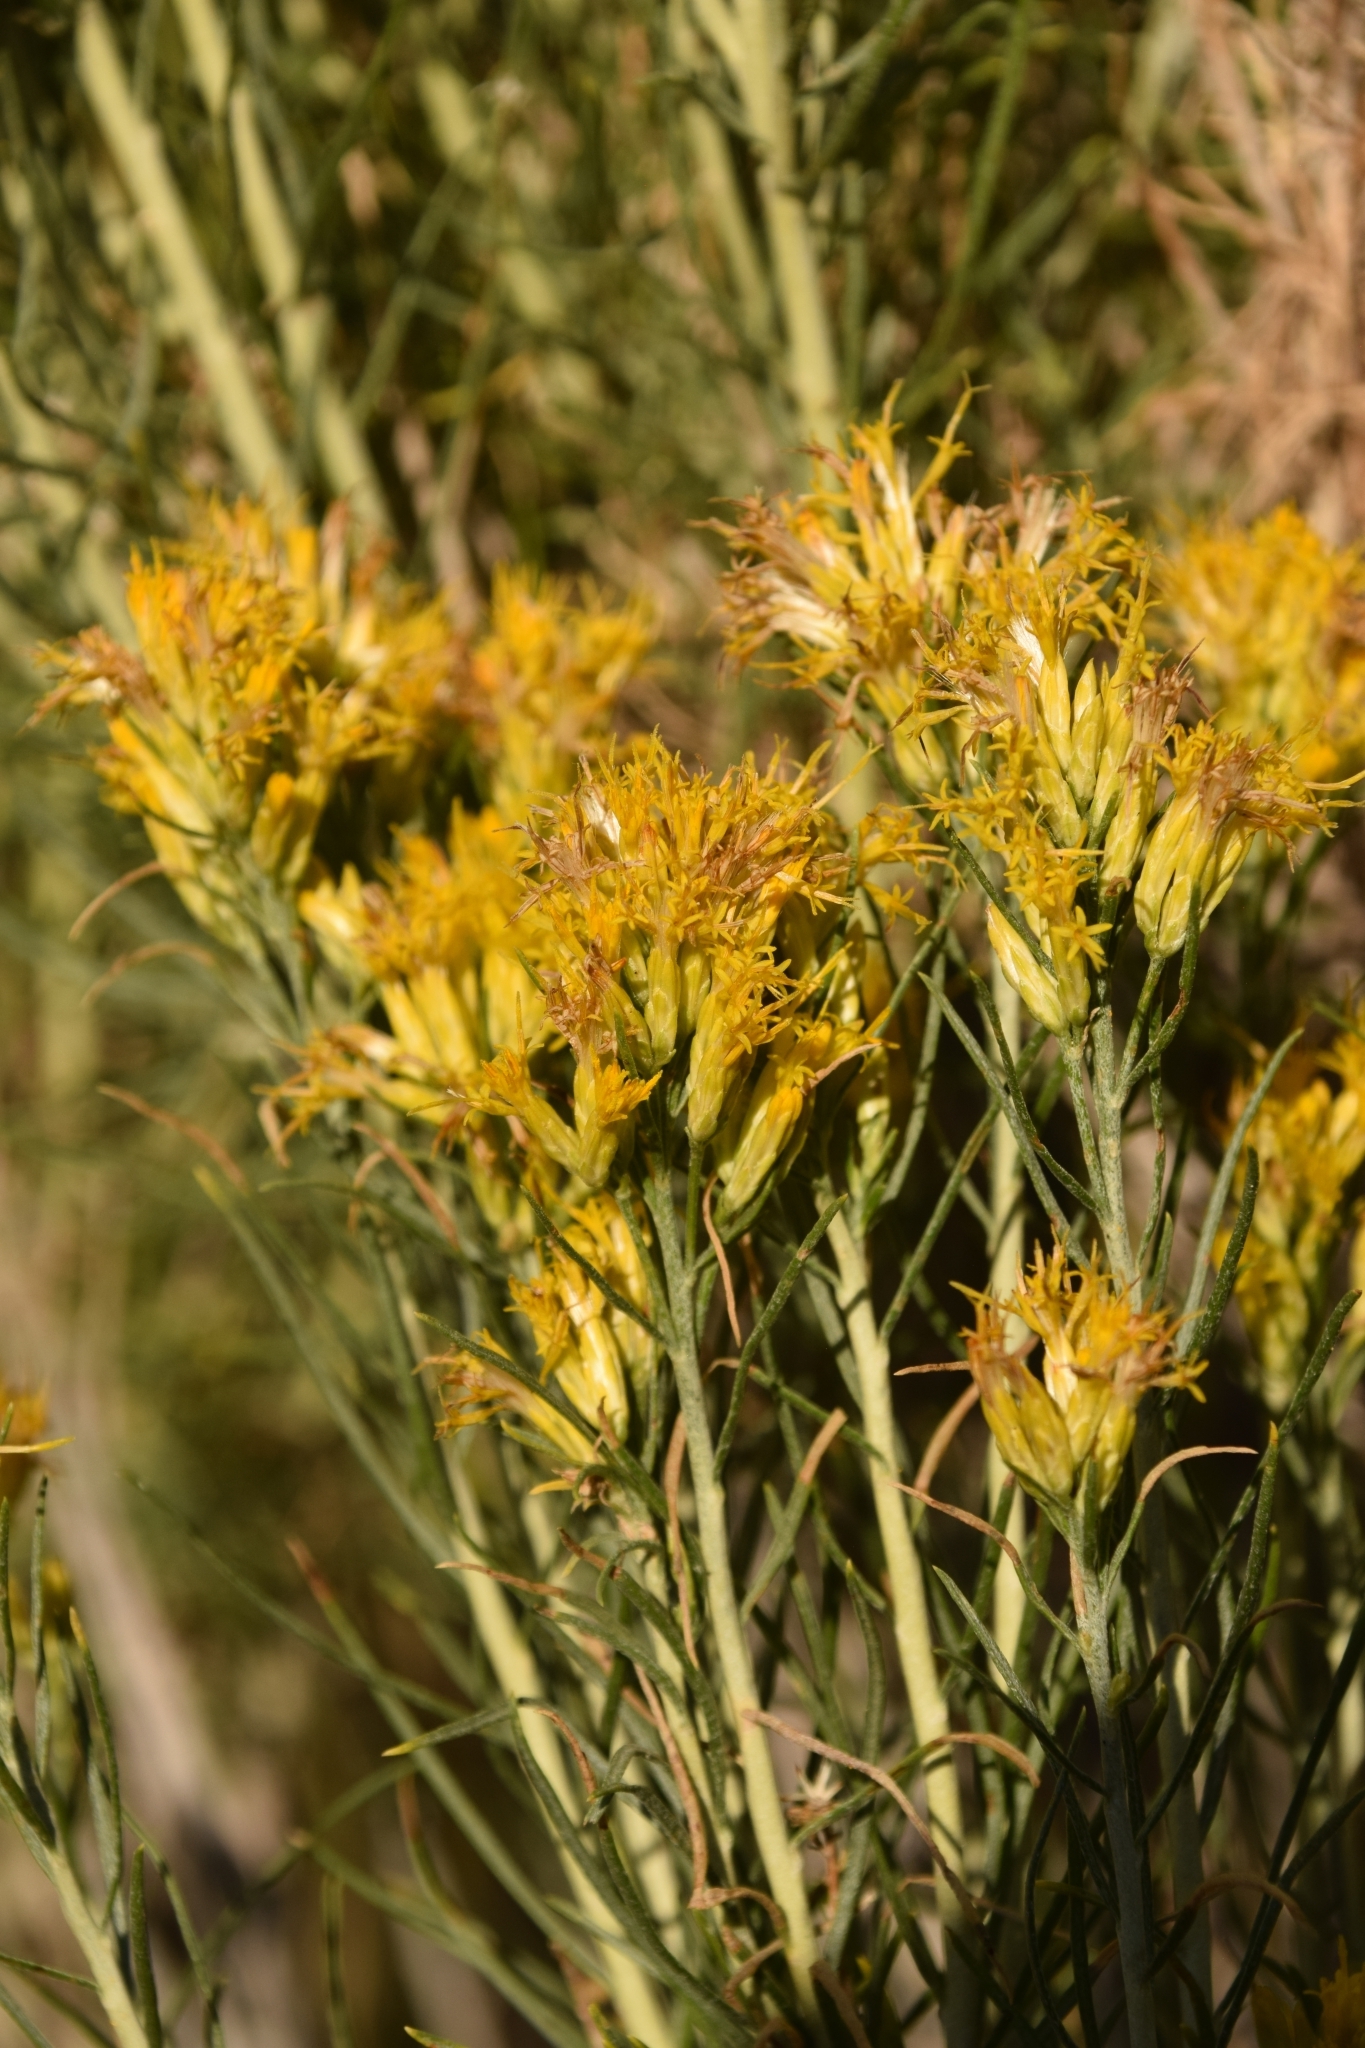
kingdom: Plantae
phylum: Tracheophyta
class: Magnoliopsida
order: Asterales
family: Asteraceae
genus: Ericameria
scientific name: Ericameria nauseosa
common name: Rubber rabbitbrush
